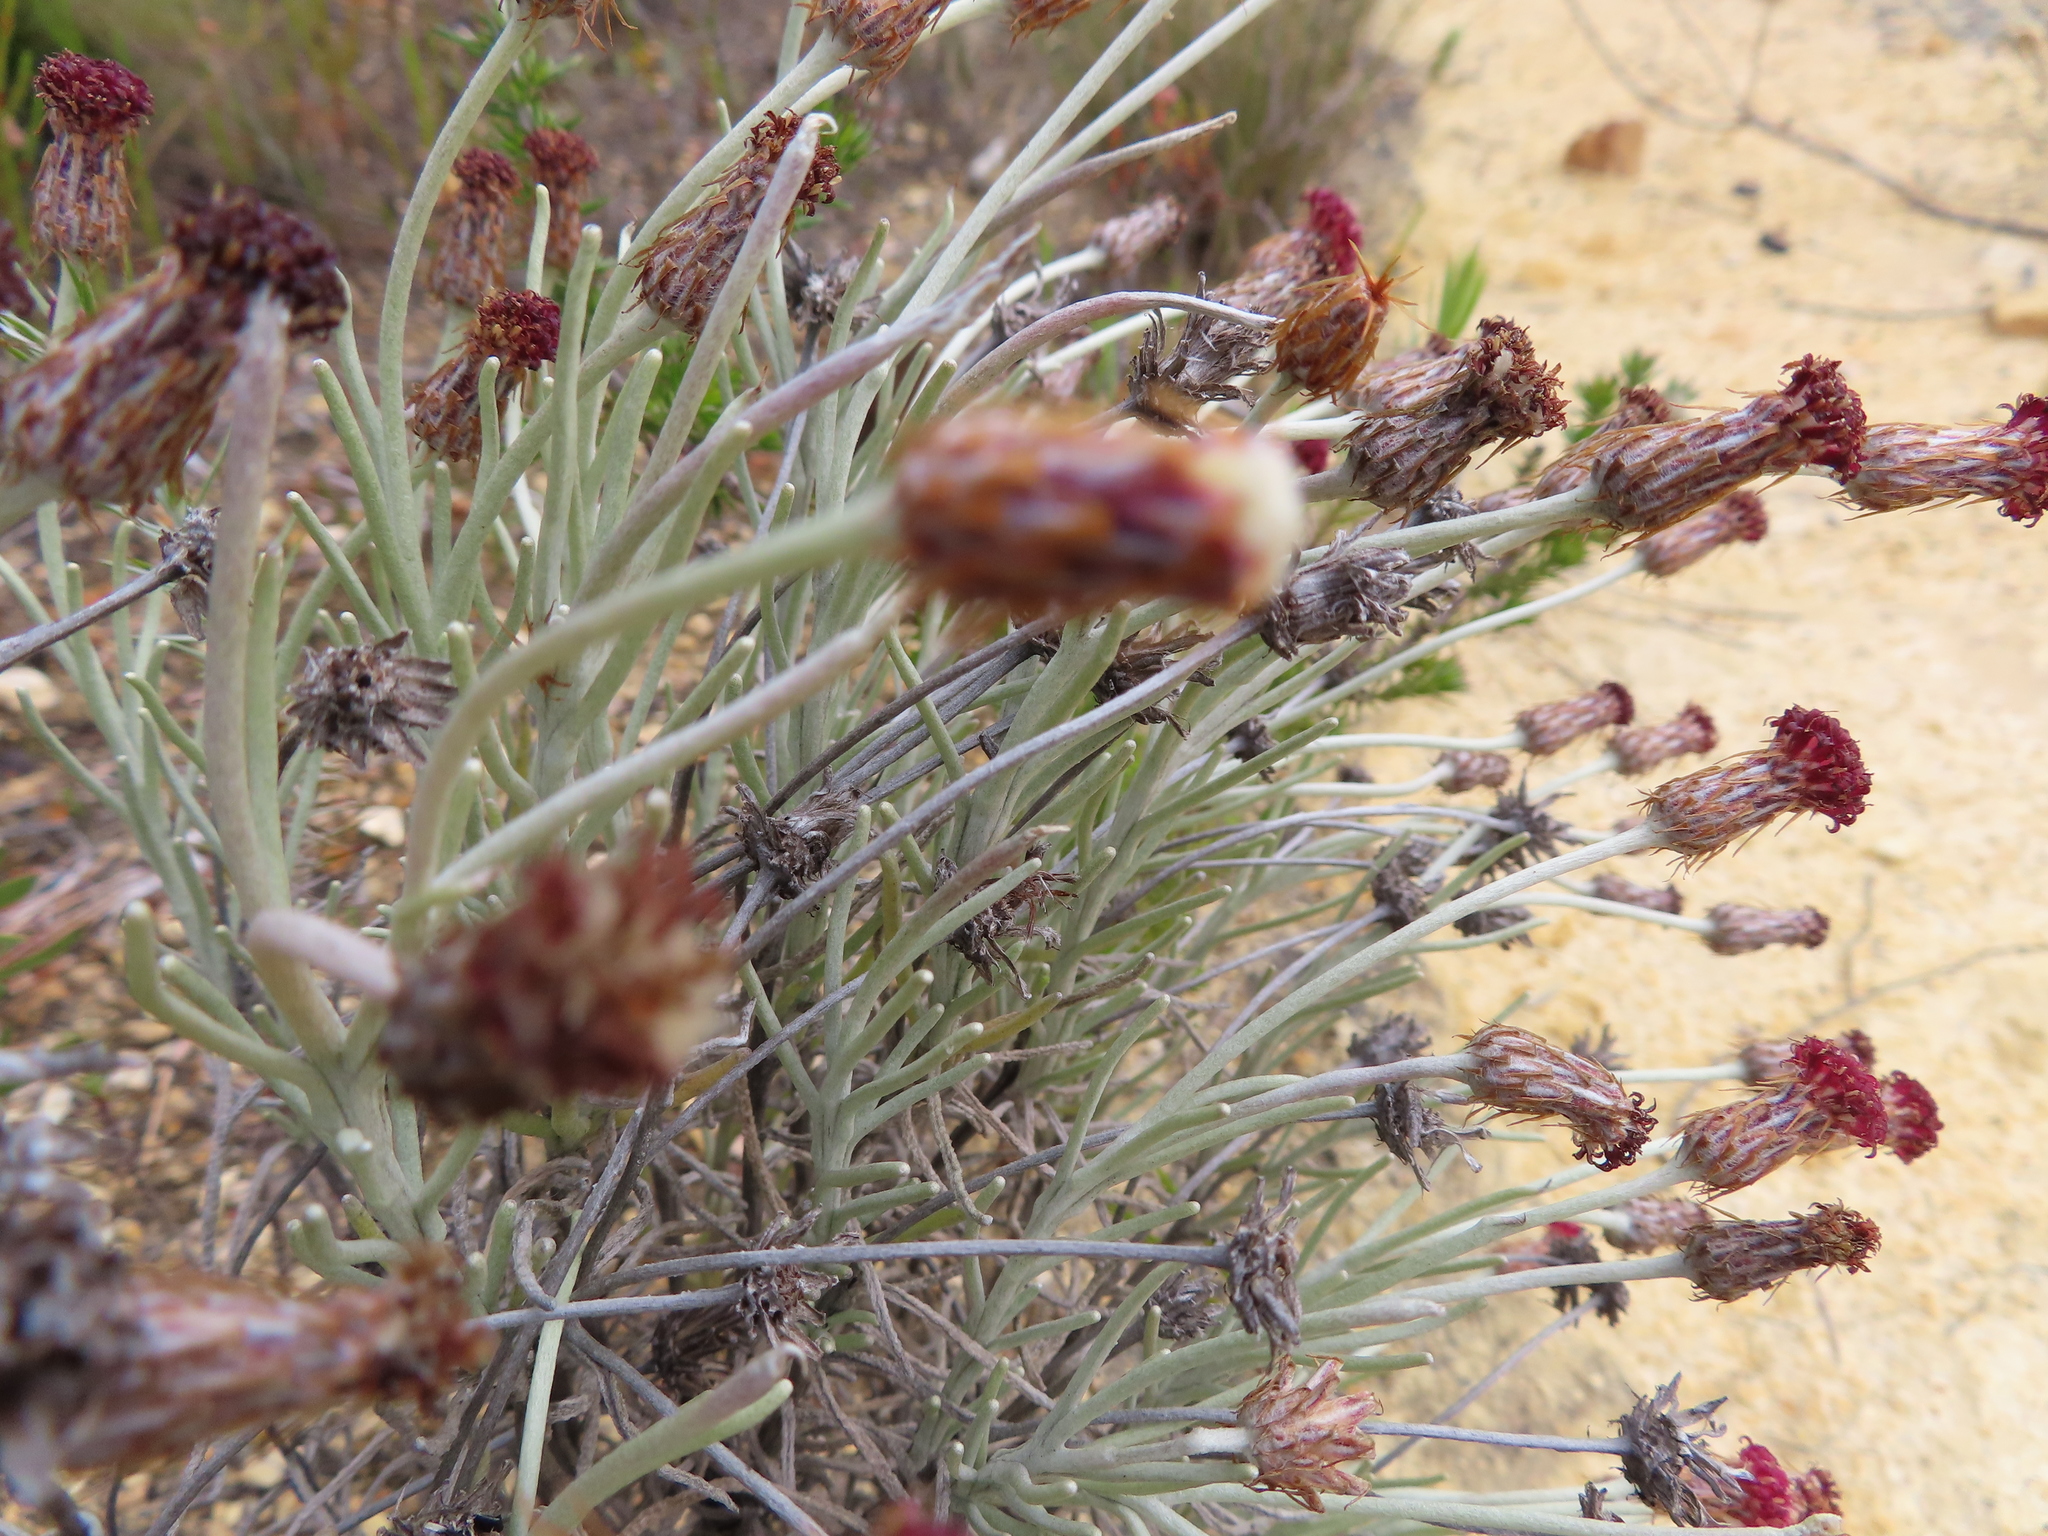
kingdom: Plantae
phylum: Tracheophyta
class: Magnoliopsida
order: Asterales
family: Asteraceae
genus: Syncarpha
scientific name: Syncarpha gnaphaloides
